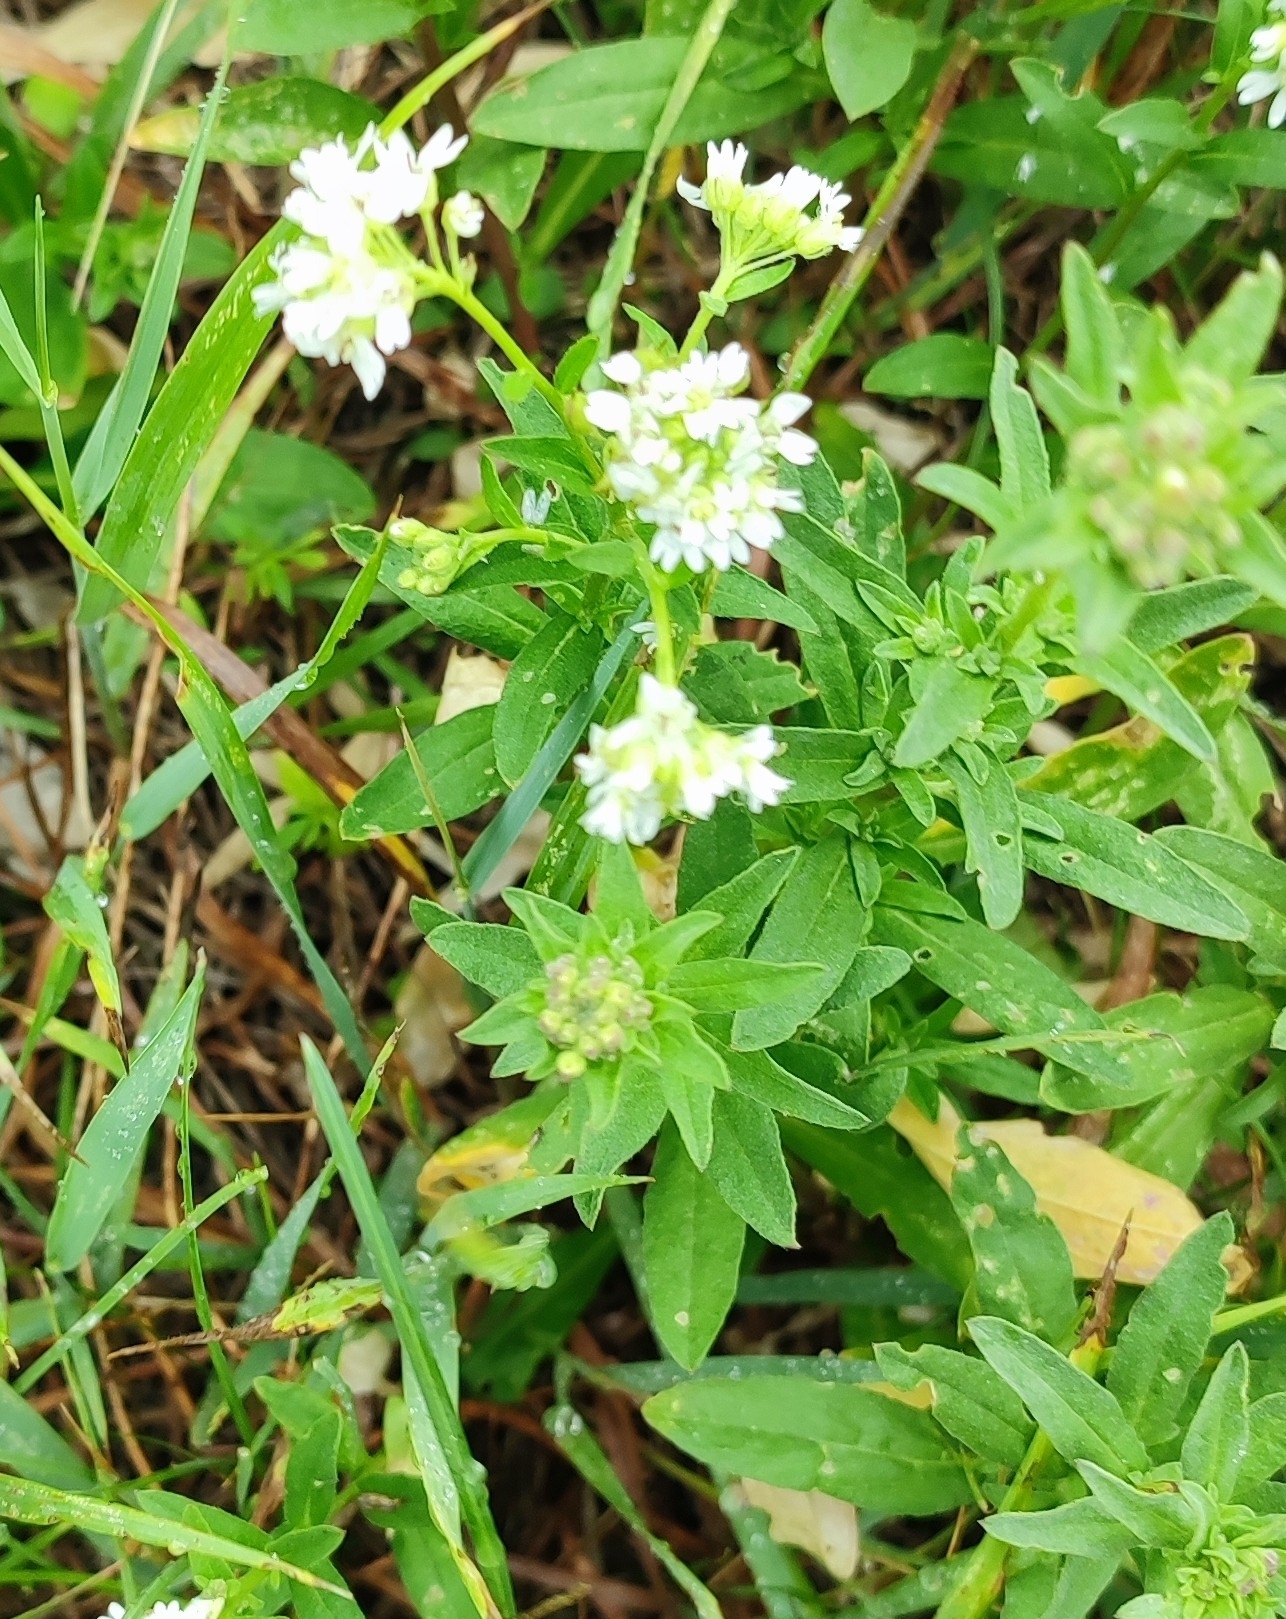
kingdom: Plantae
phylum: Tracheophyta
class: Magnoliopsida
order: Brassicales
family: Brassicaceae
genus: Berteroa
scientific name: Berteroa incana
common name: Hoary alison
